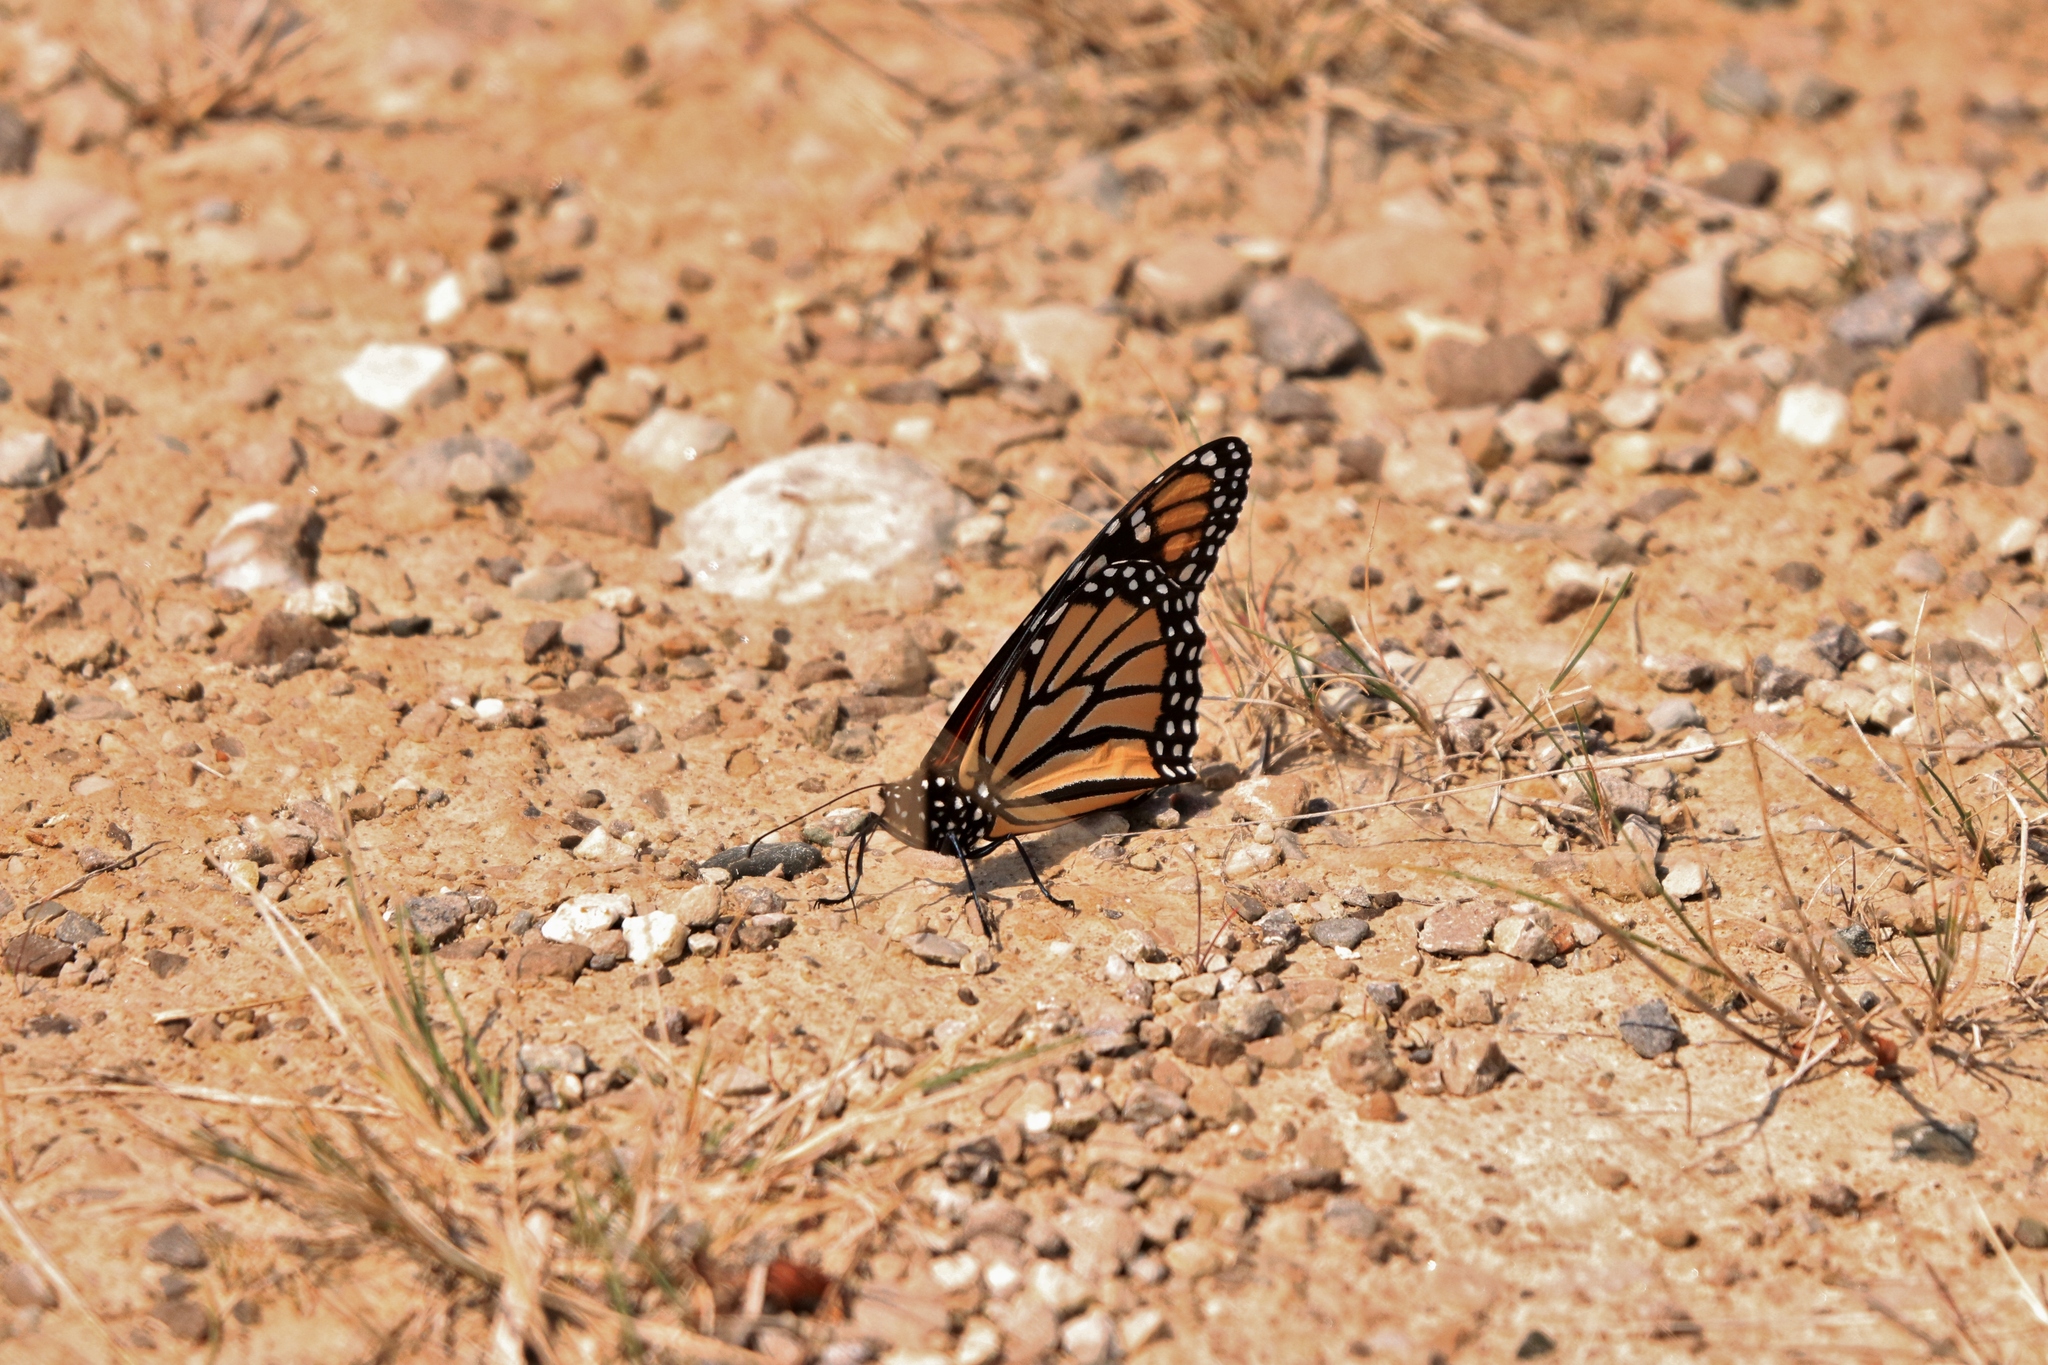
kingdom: Animalia
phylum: Arthropoda
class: Insecta
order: Lepidoptera
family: Nymphalidae
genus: Danaus
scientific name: Danaus plexippus
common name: Monarch
